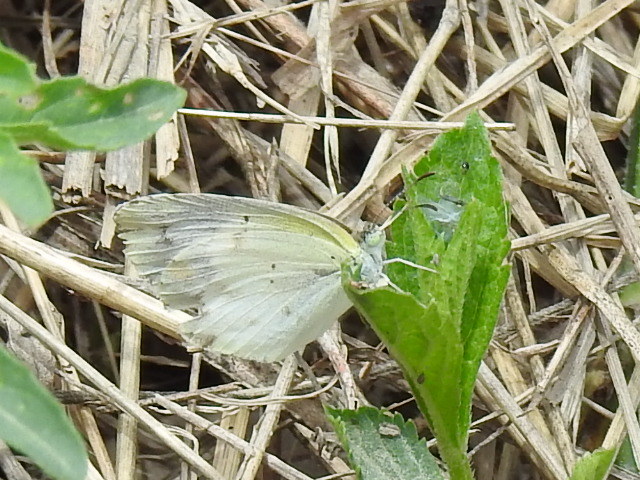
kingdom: Animalia
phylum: Arthropoda
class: Insecta
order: Lepidoptera
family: Pieridae
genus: Pyrisitia
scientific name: Pyrisitia lisa
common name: Little yellow
